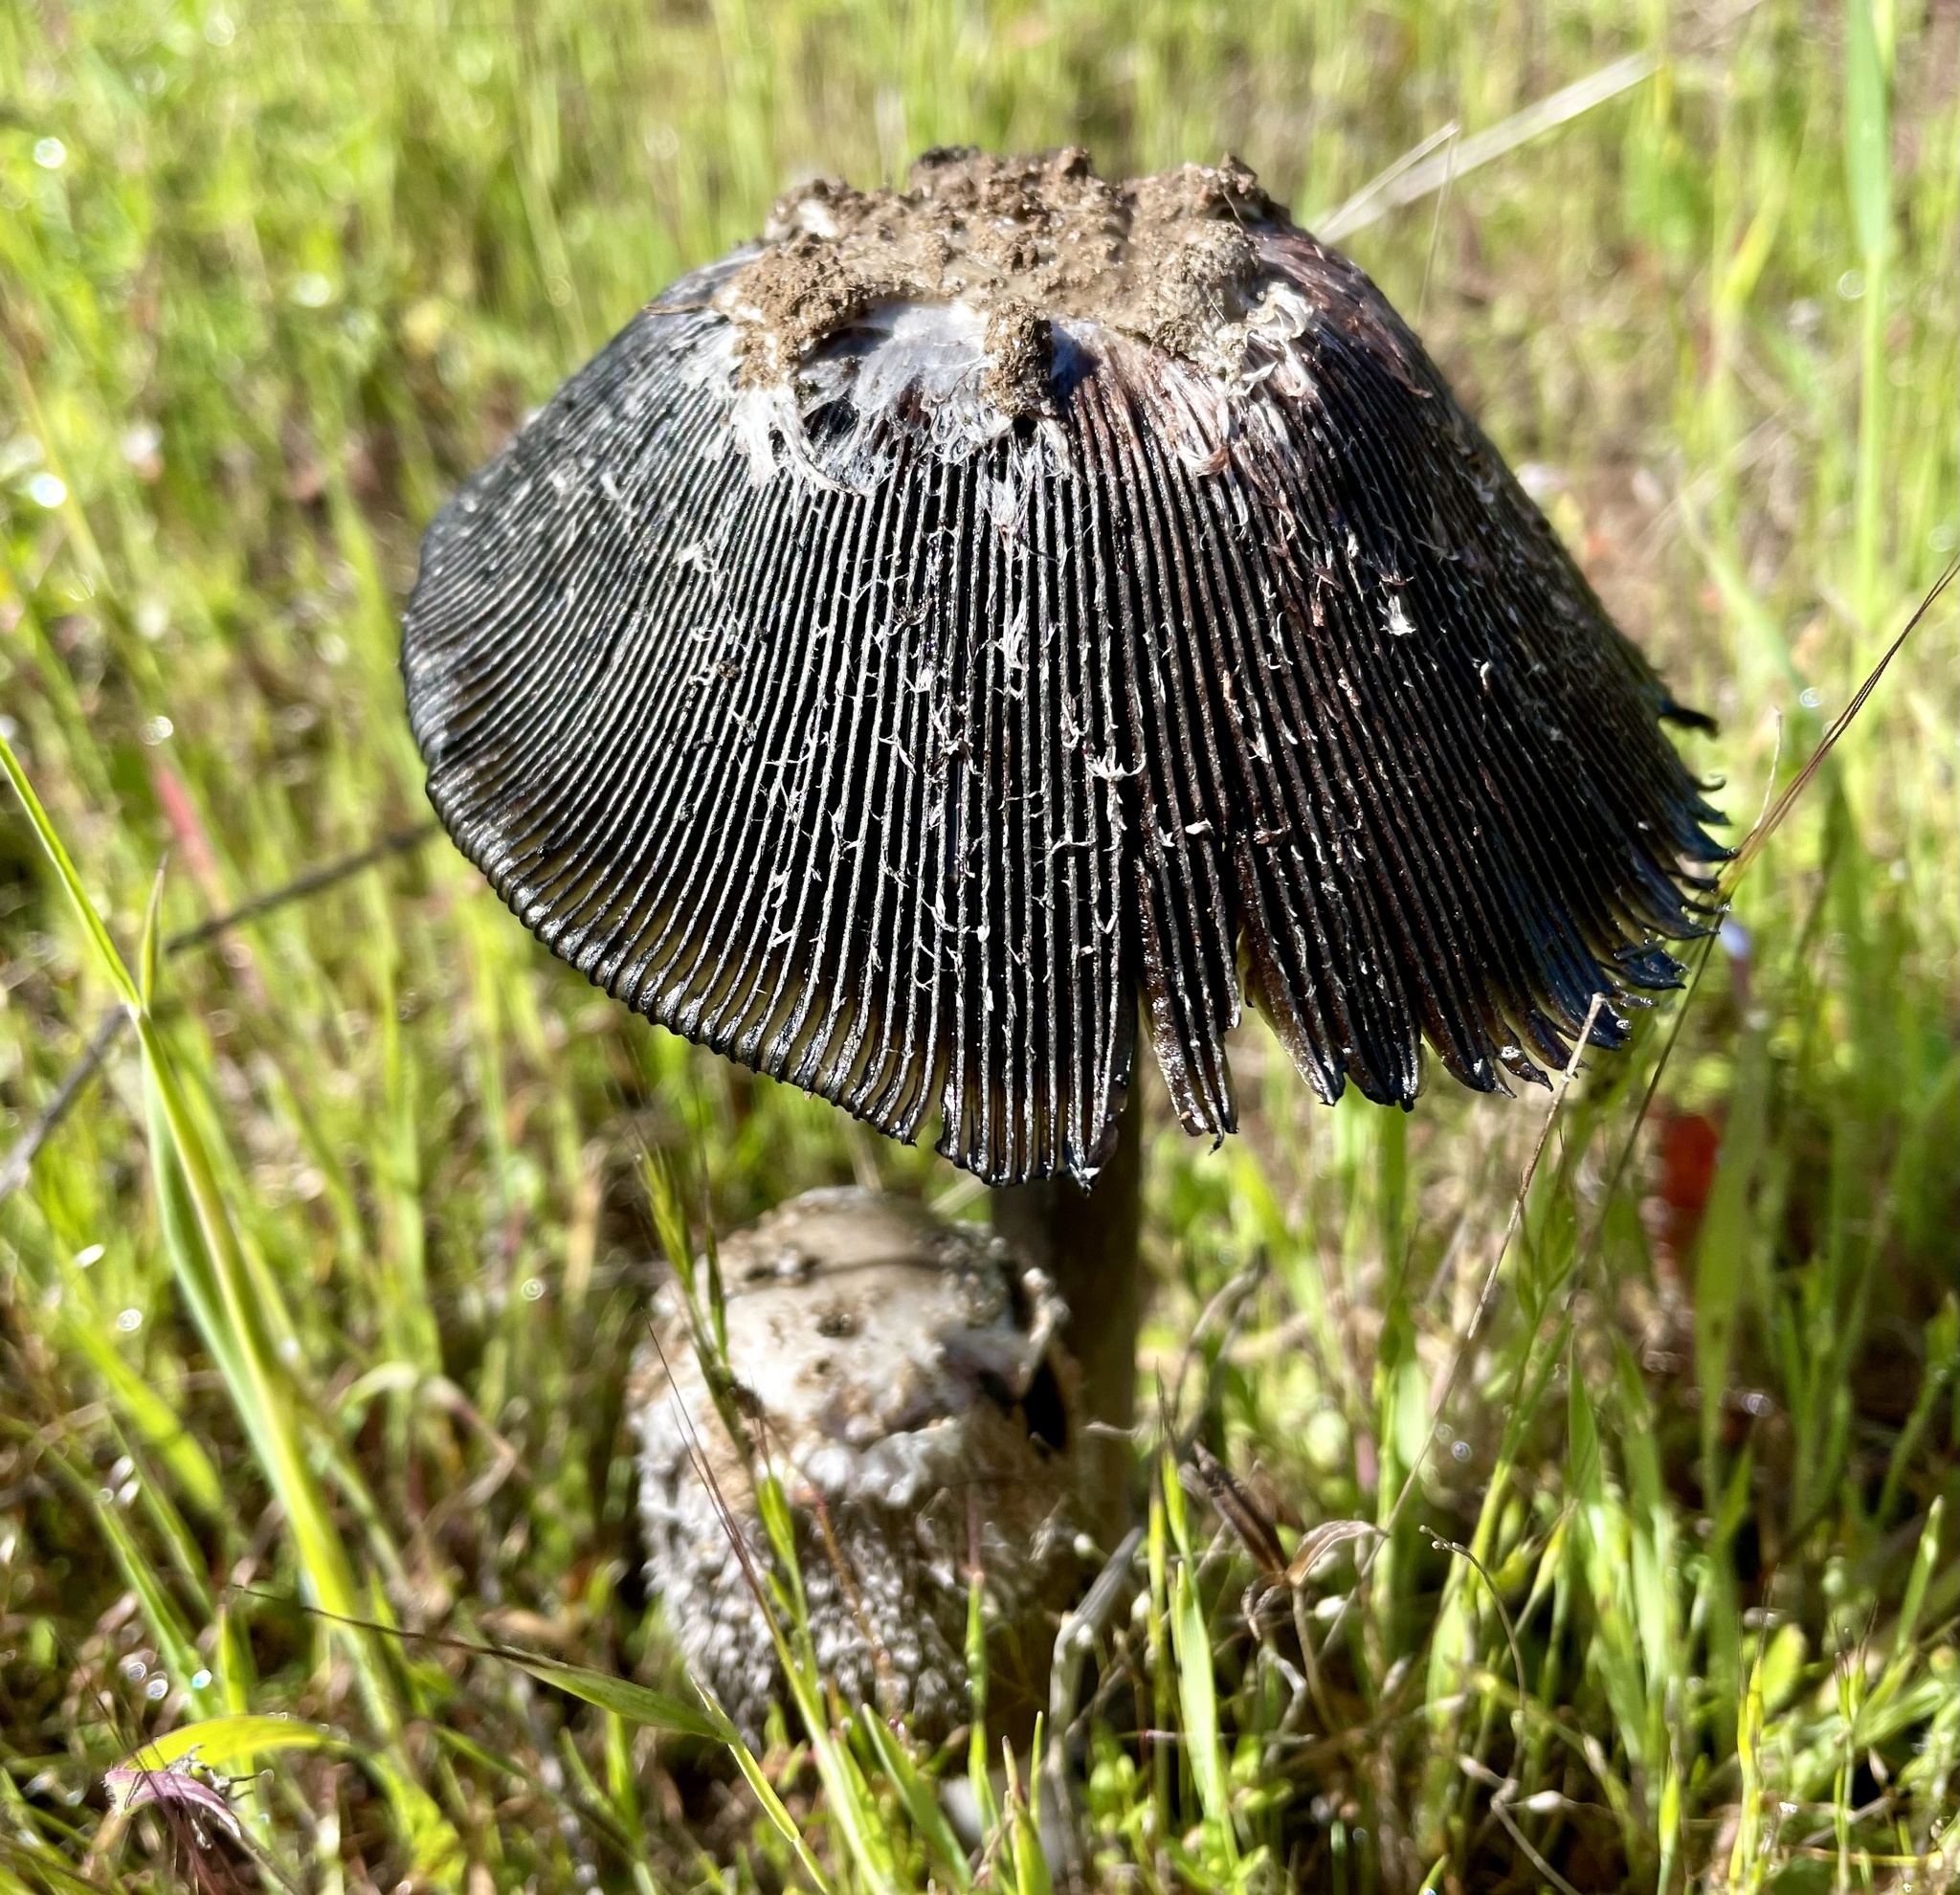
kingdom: Fungi
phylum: Basidiomycota
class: Agaricomycetes
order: Agaricales
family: Agaricaceae
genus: Coprinus
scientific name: Coprinus calyptratus
